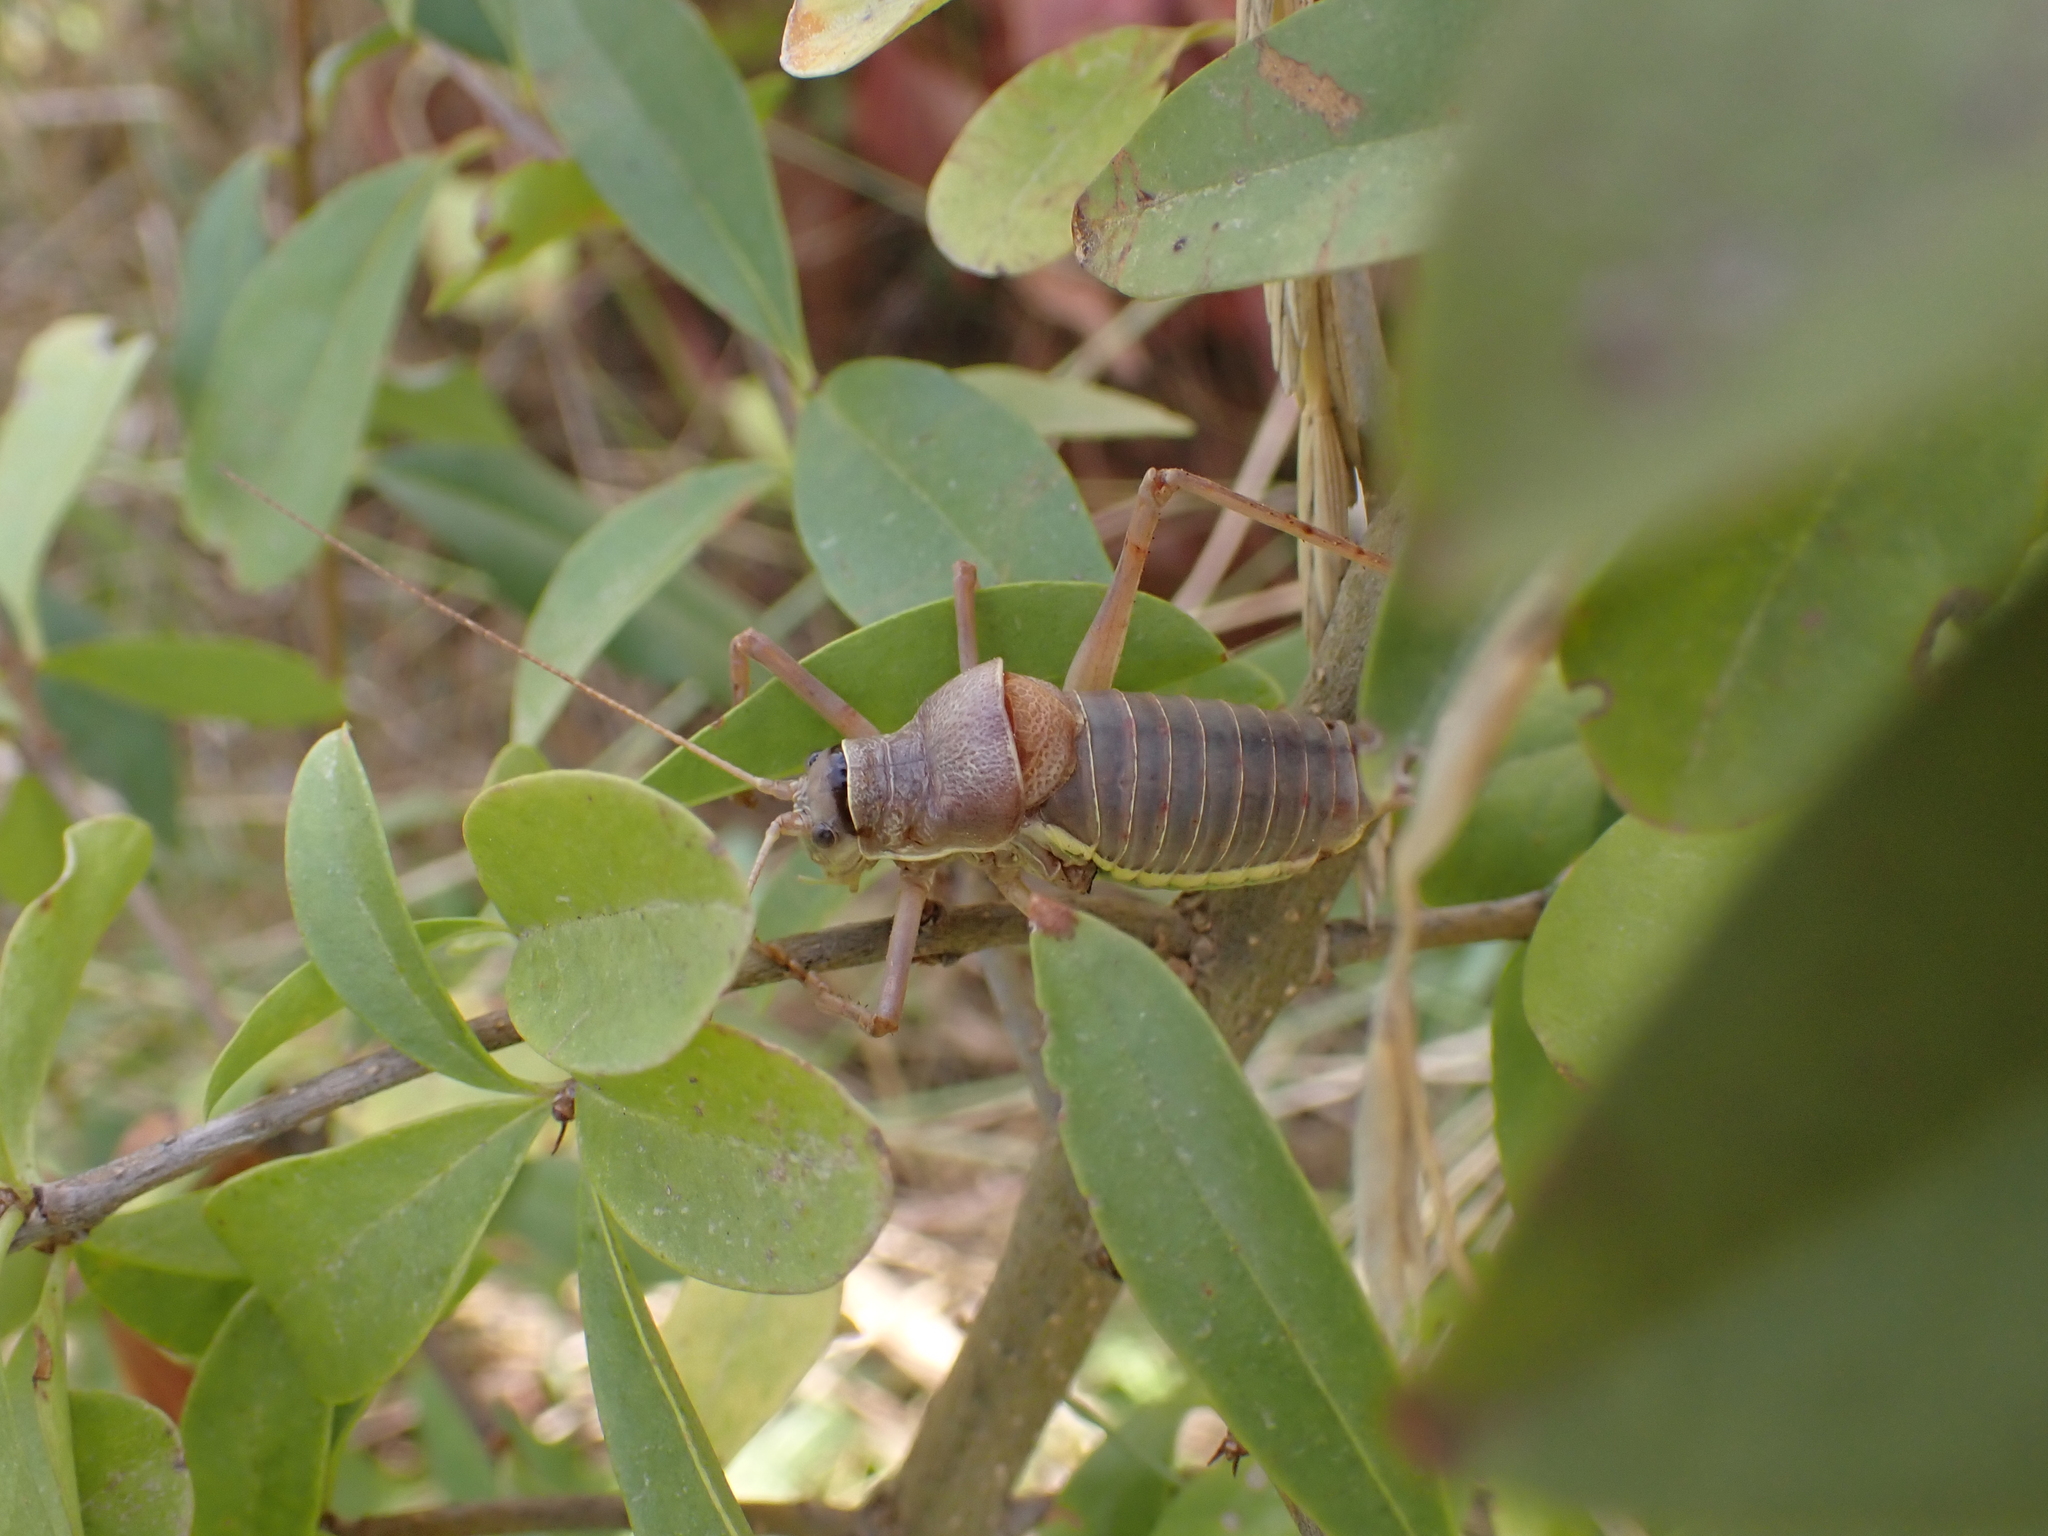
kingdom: Animalia
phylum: Arthropoda
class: Insecta
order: Orthoptera
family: Tettigoniidae
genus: Ephippiger
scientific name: Ephippiger ephippiger
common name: Eastern saddle bush-cricket
